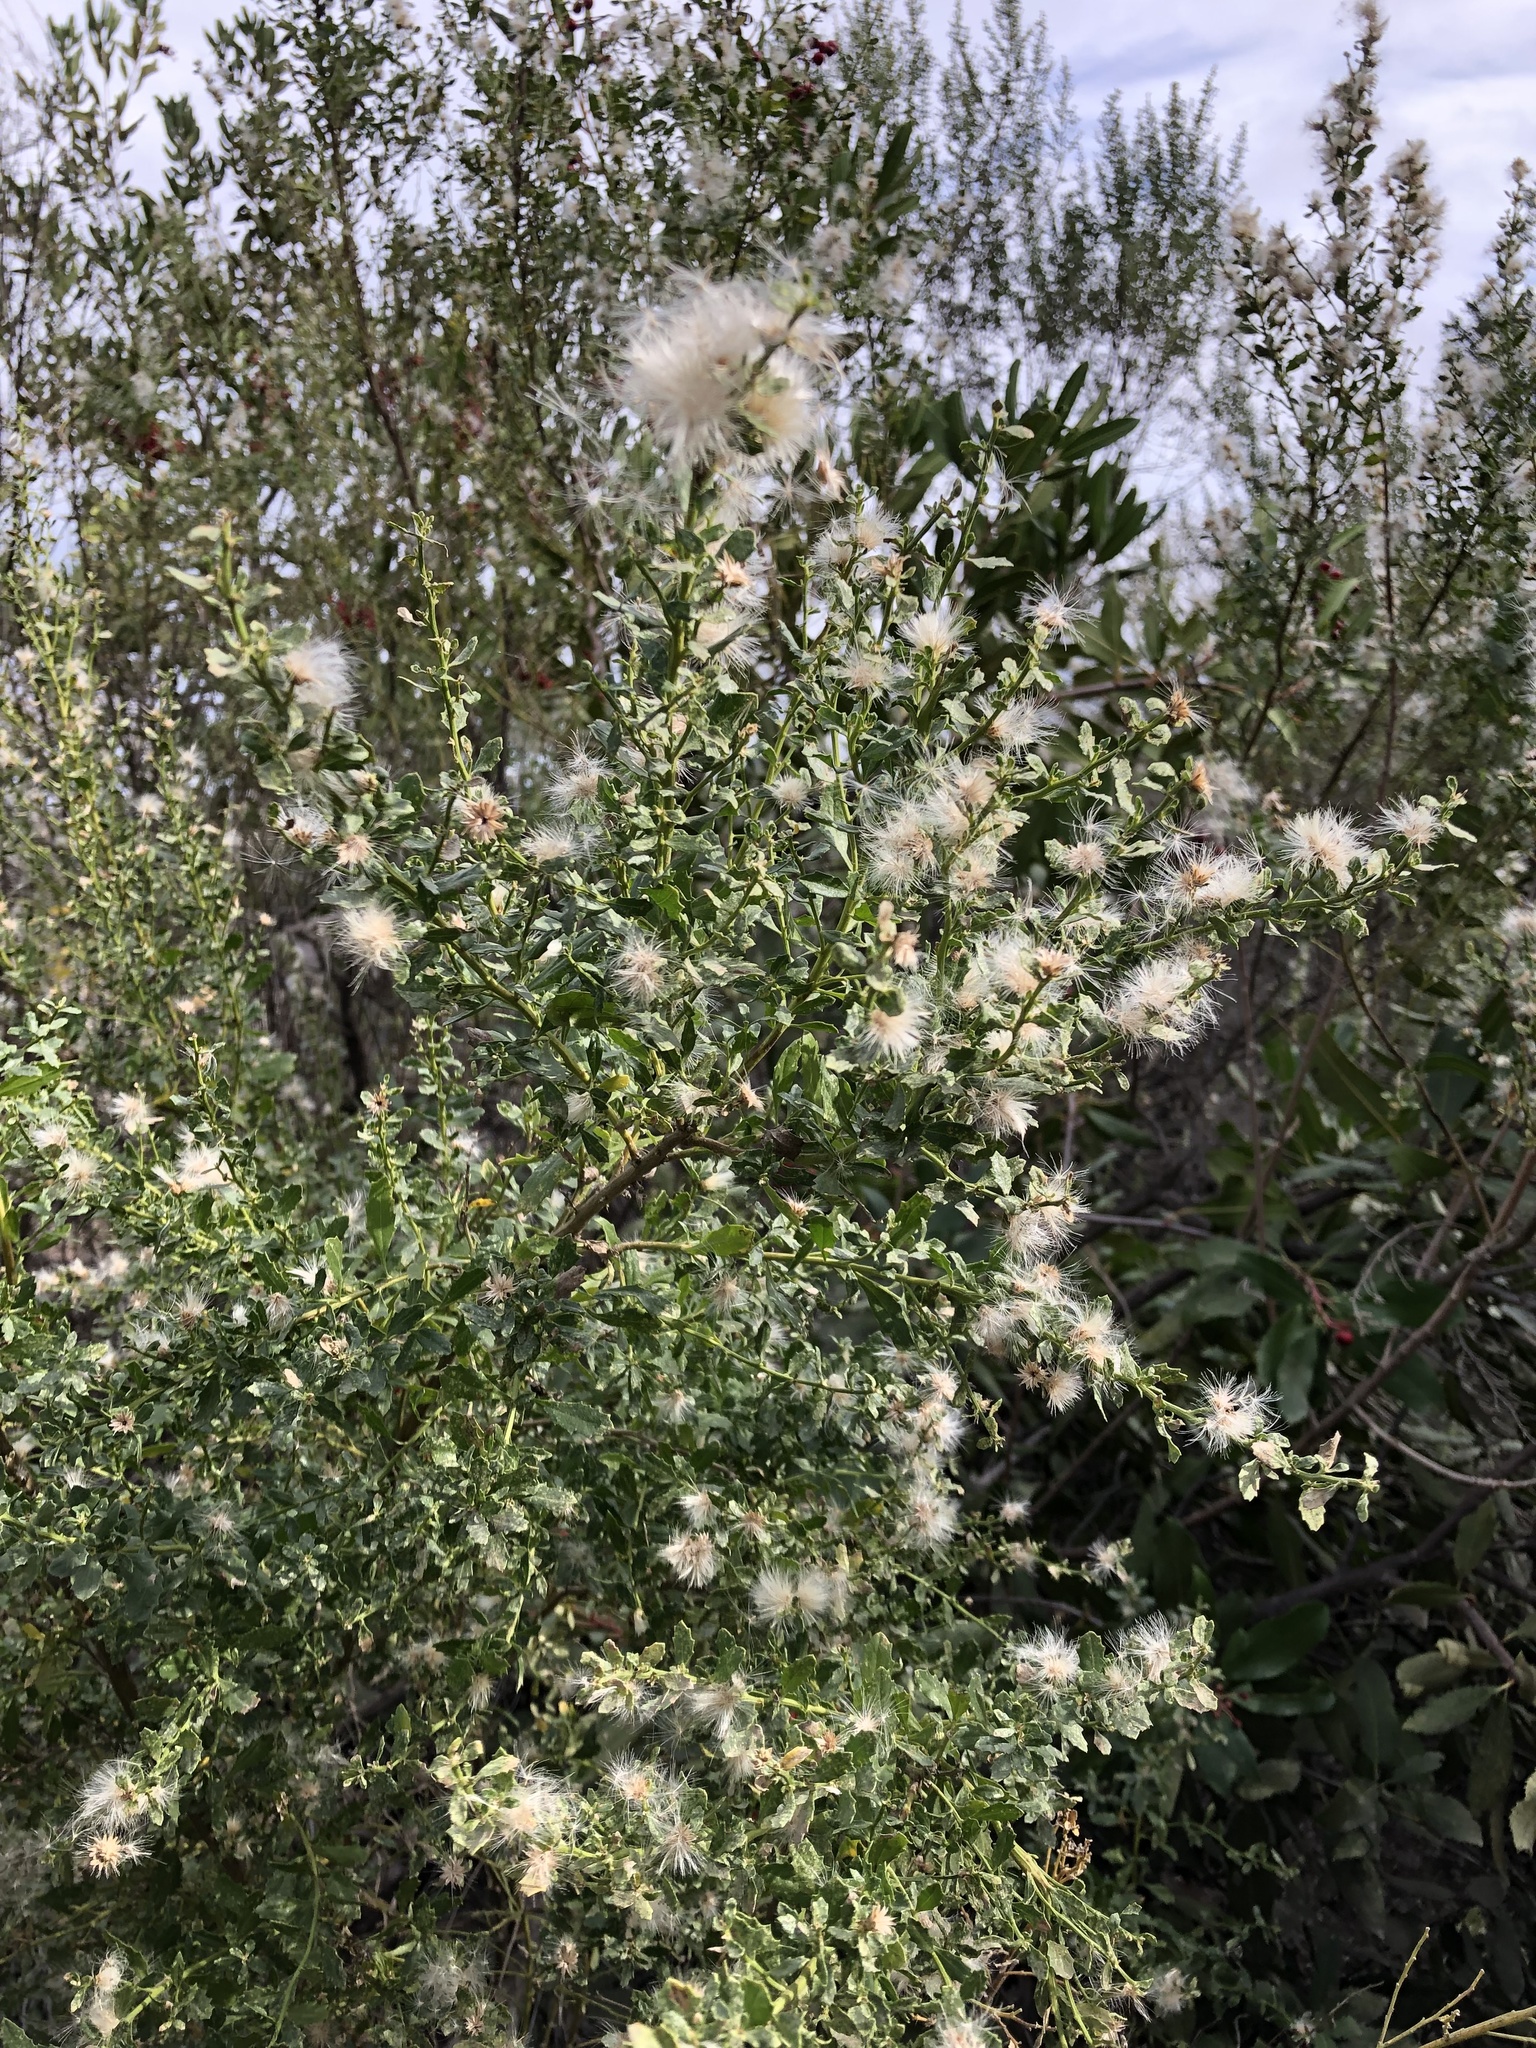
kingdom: Plantae
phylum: Tracheophyta
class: Magnoliopsida
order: Asterales
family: Asteraceae
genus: Baccharis
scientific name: Baccharis pilularis
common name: Coyotebrush
